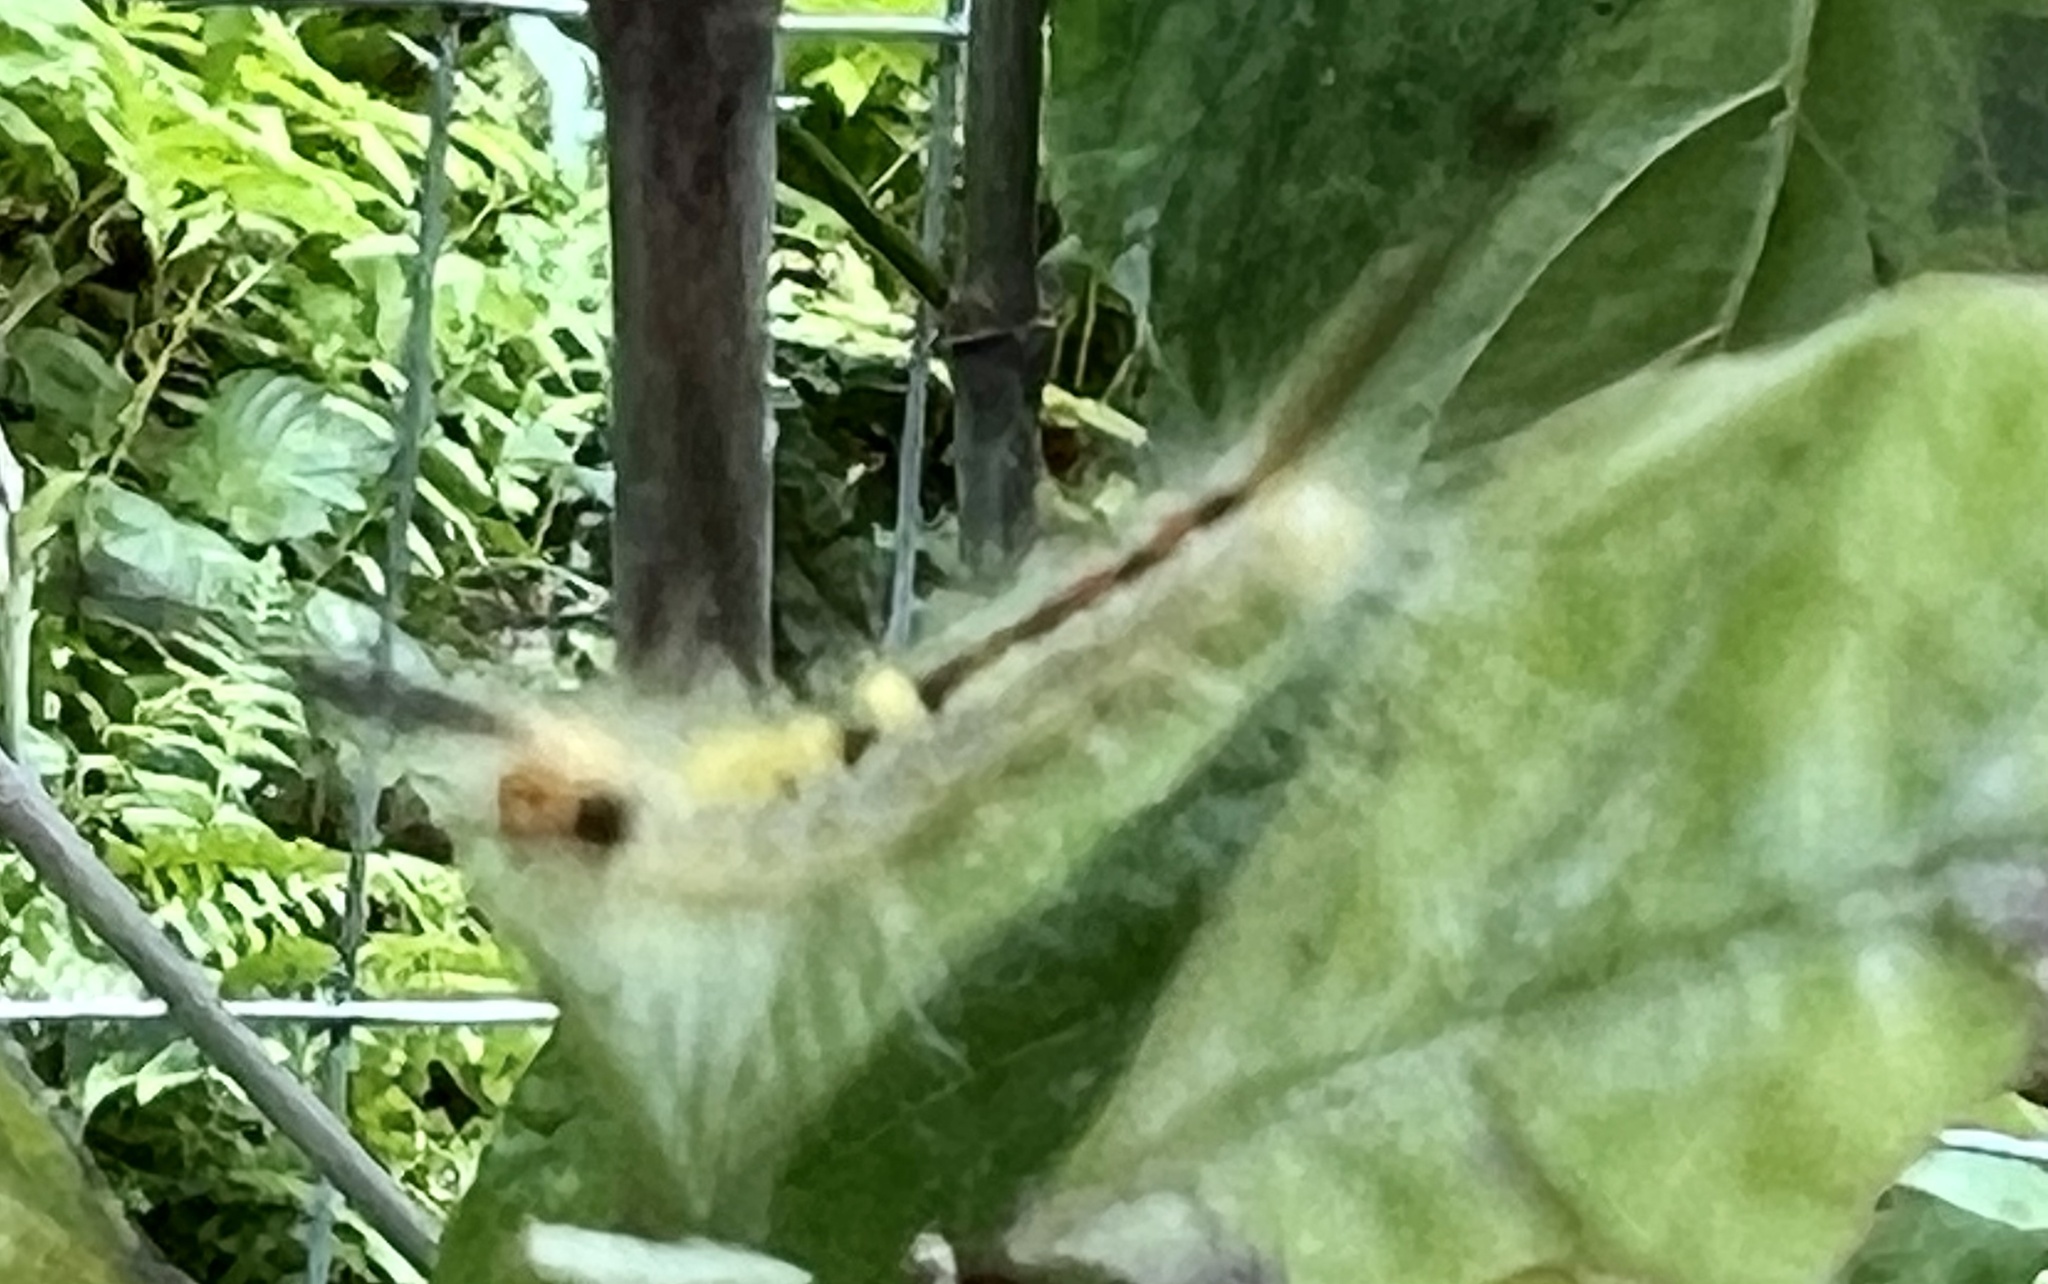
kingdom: Animalia
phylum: Arthropoda
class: Insecta
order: Lepidoptera
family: Erebidae
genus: Orgyia
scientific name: Orgyia leucostigma
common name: White-marked tussock moth
